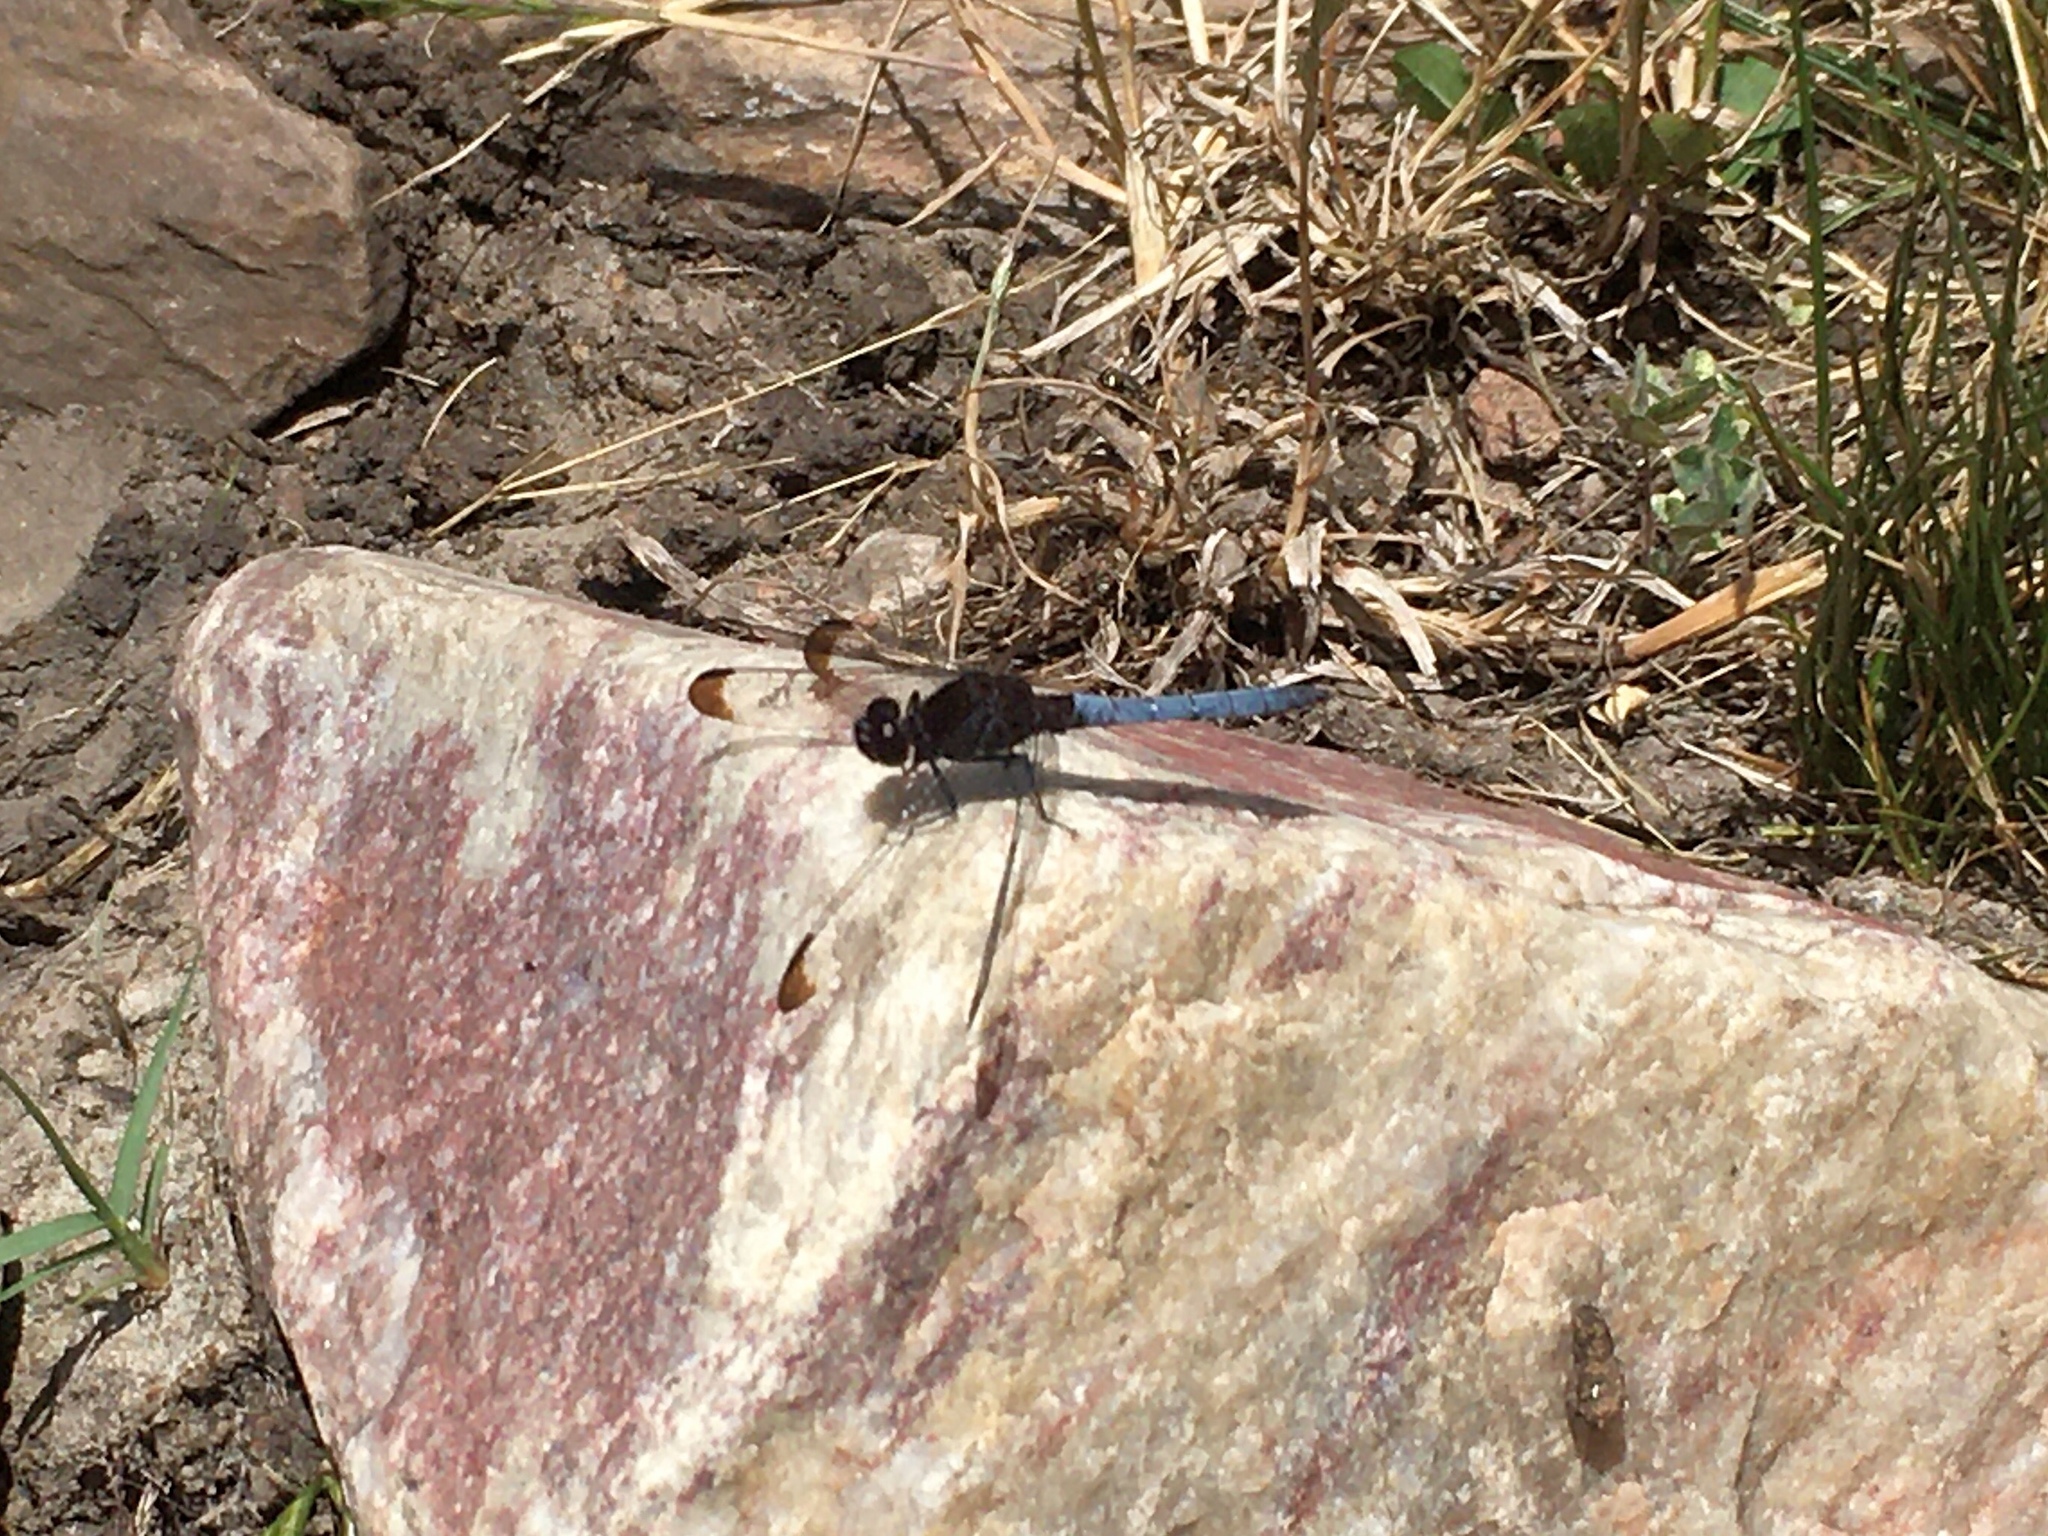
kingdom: Animalia
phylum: Arthropoda
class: Insecta
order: Odonata
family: Libellulidae
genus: Erythrodiplax
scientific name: Erythrodiplax atroterminata
